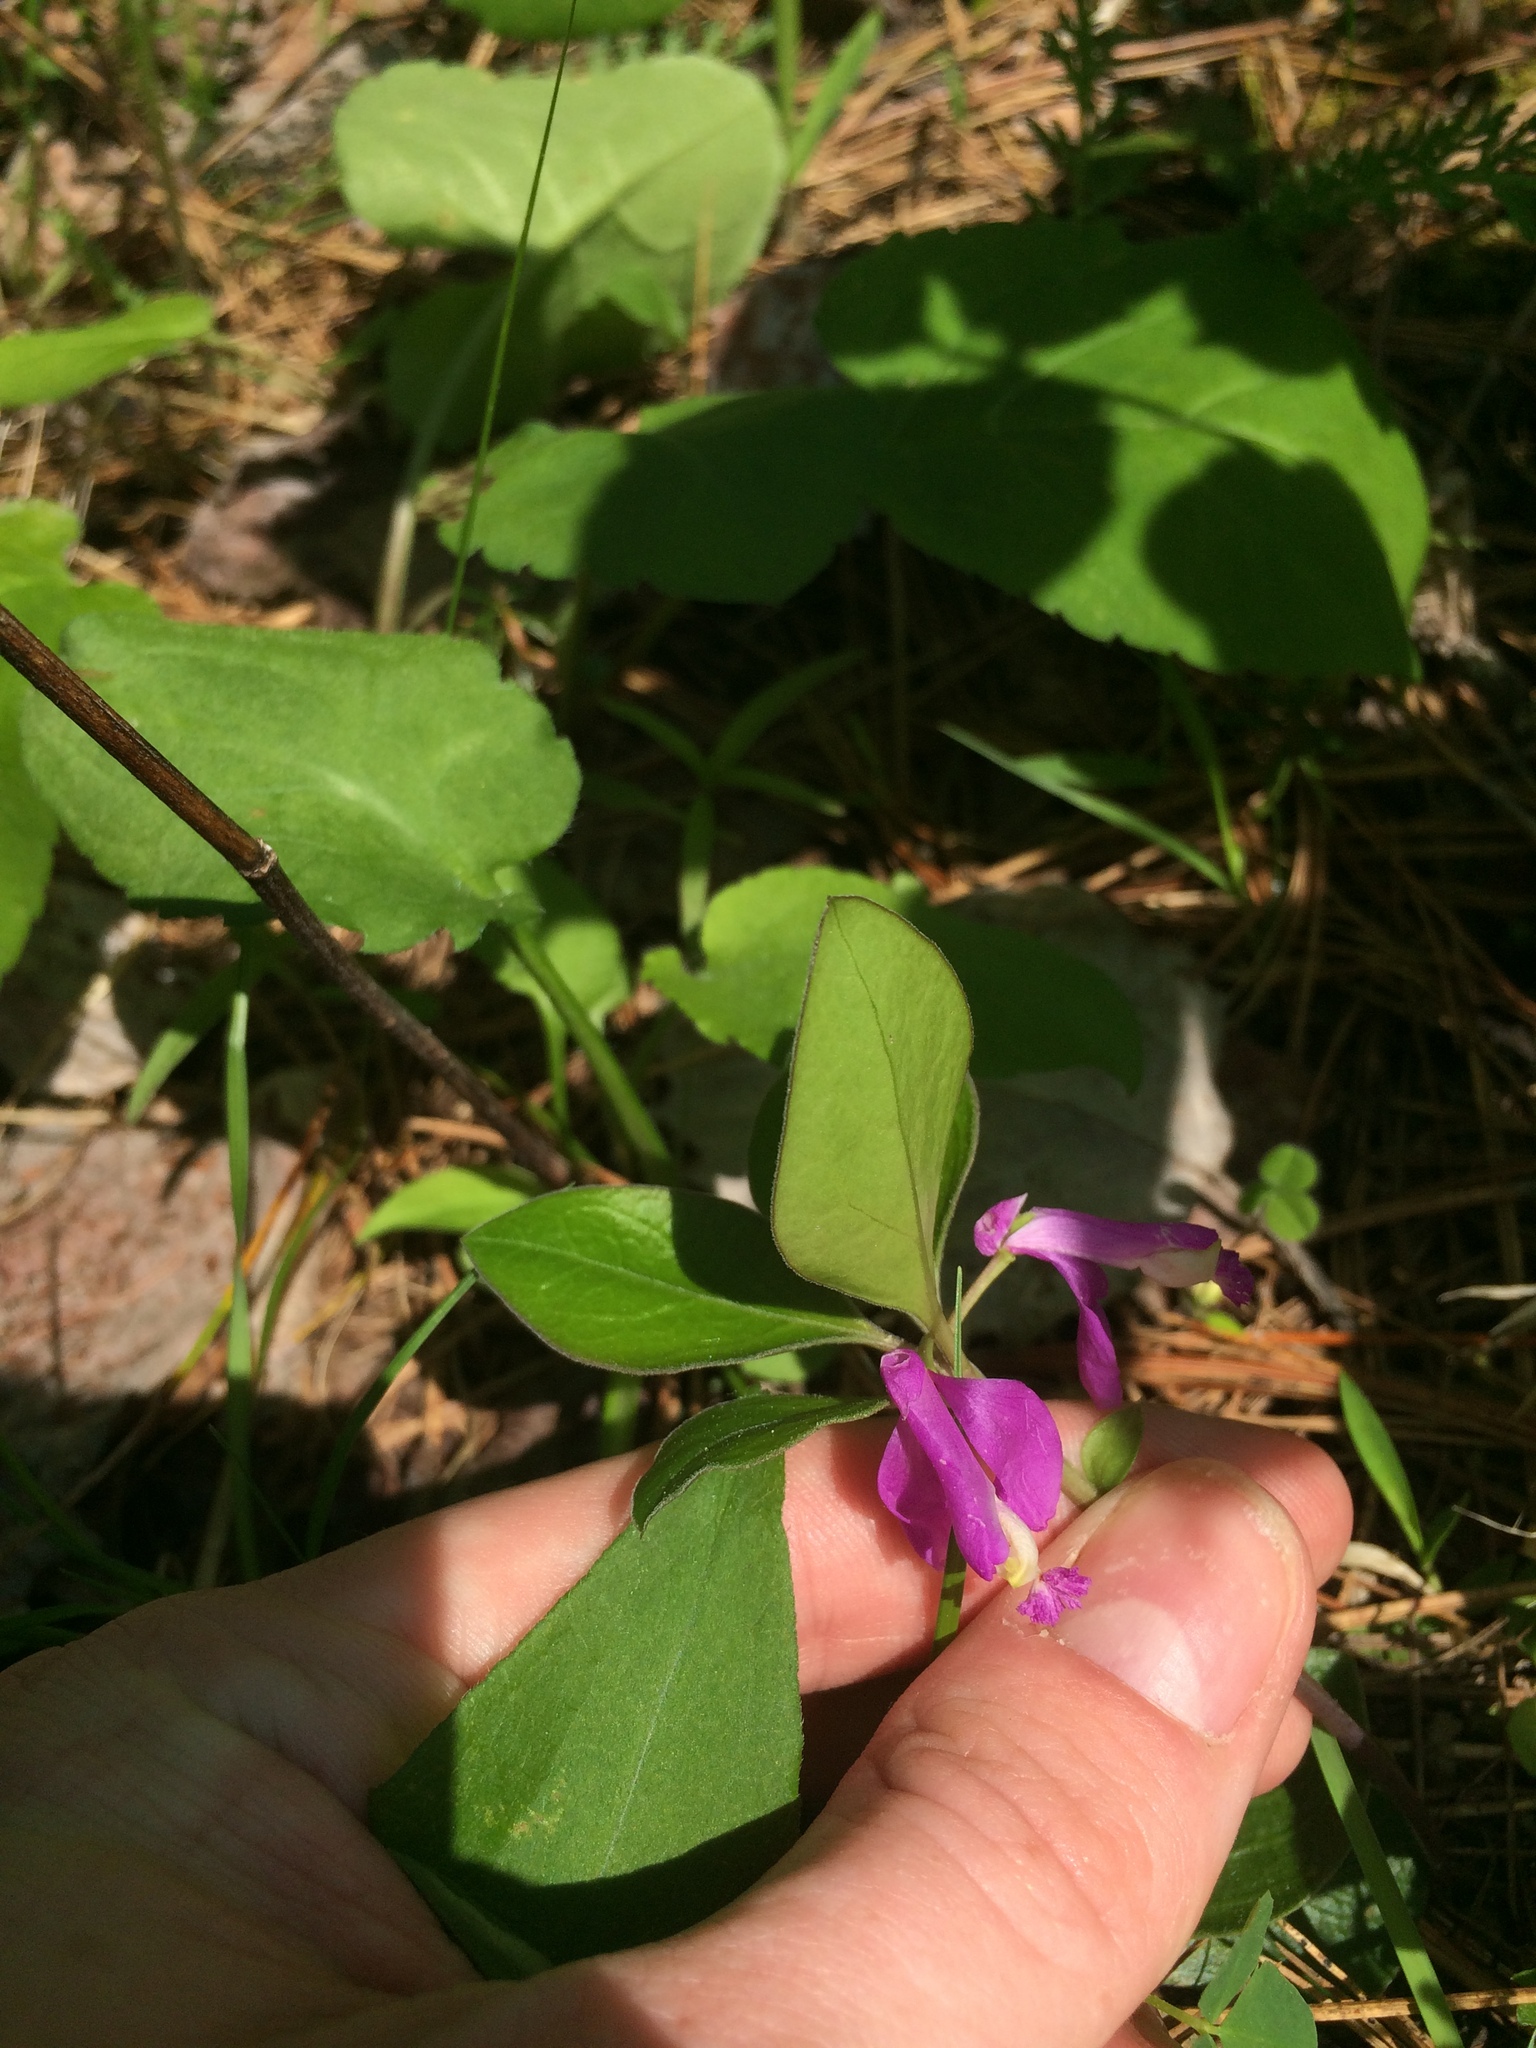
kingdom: Plantae
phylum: Tracheophyta
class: Magnoliopsida
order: Fabales
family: Polygalaceae
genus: Polygaloides
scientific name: Polygaloides paucifolia
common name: Bird-on-the-wing
